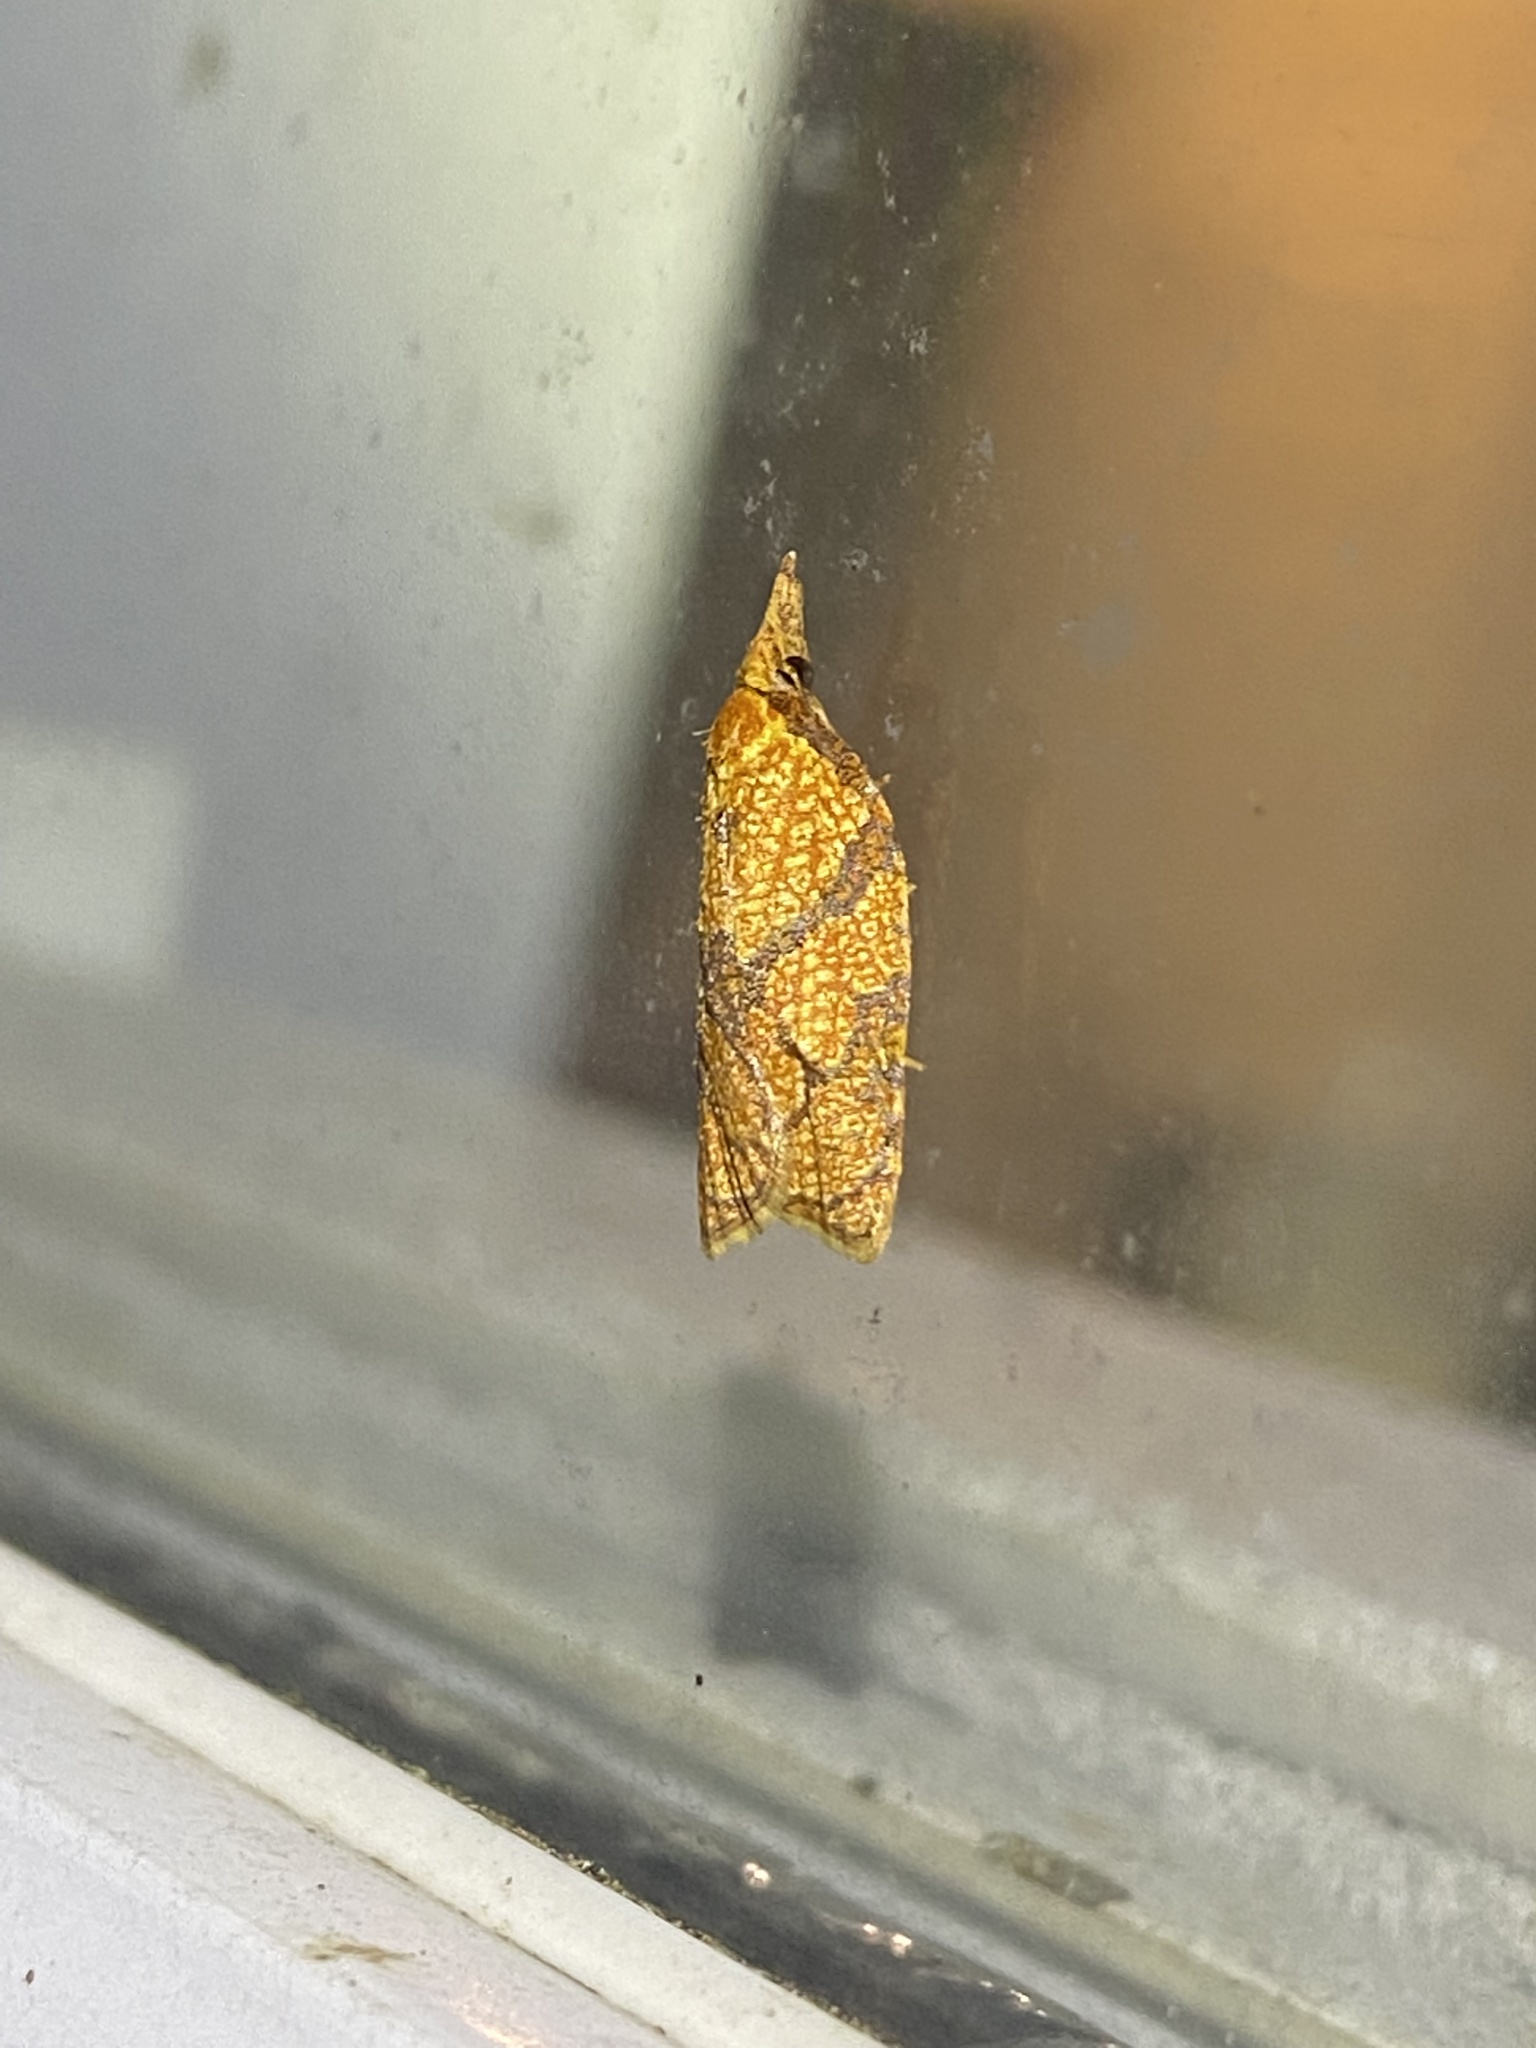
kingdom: Animalia
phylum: Arthropoda
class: Insecta
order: Lepidoptera
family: Tortricidae
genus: Cenopis
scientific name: Cenopis reticulatana
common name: Reticulated fruitworm moth
